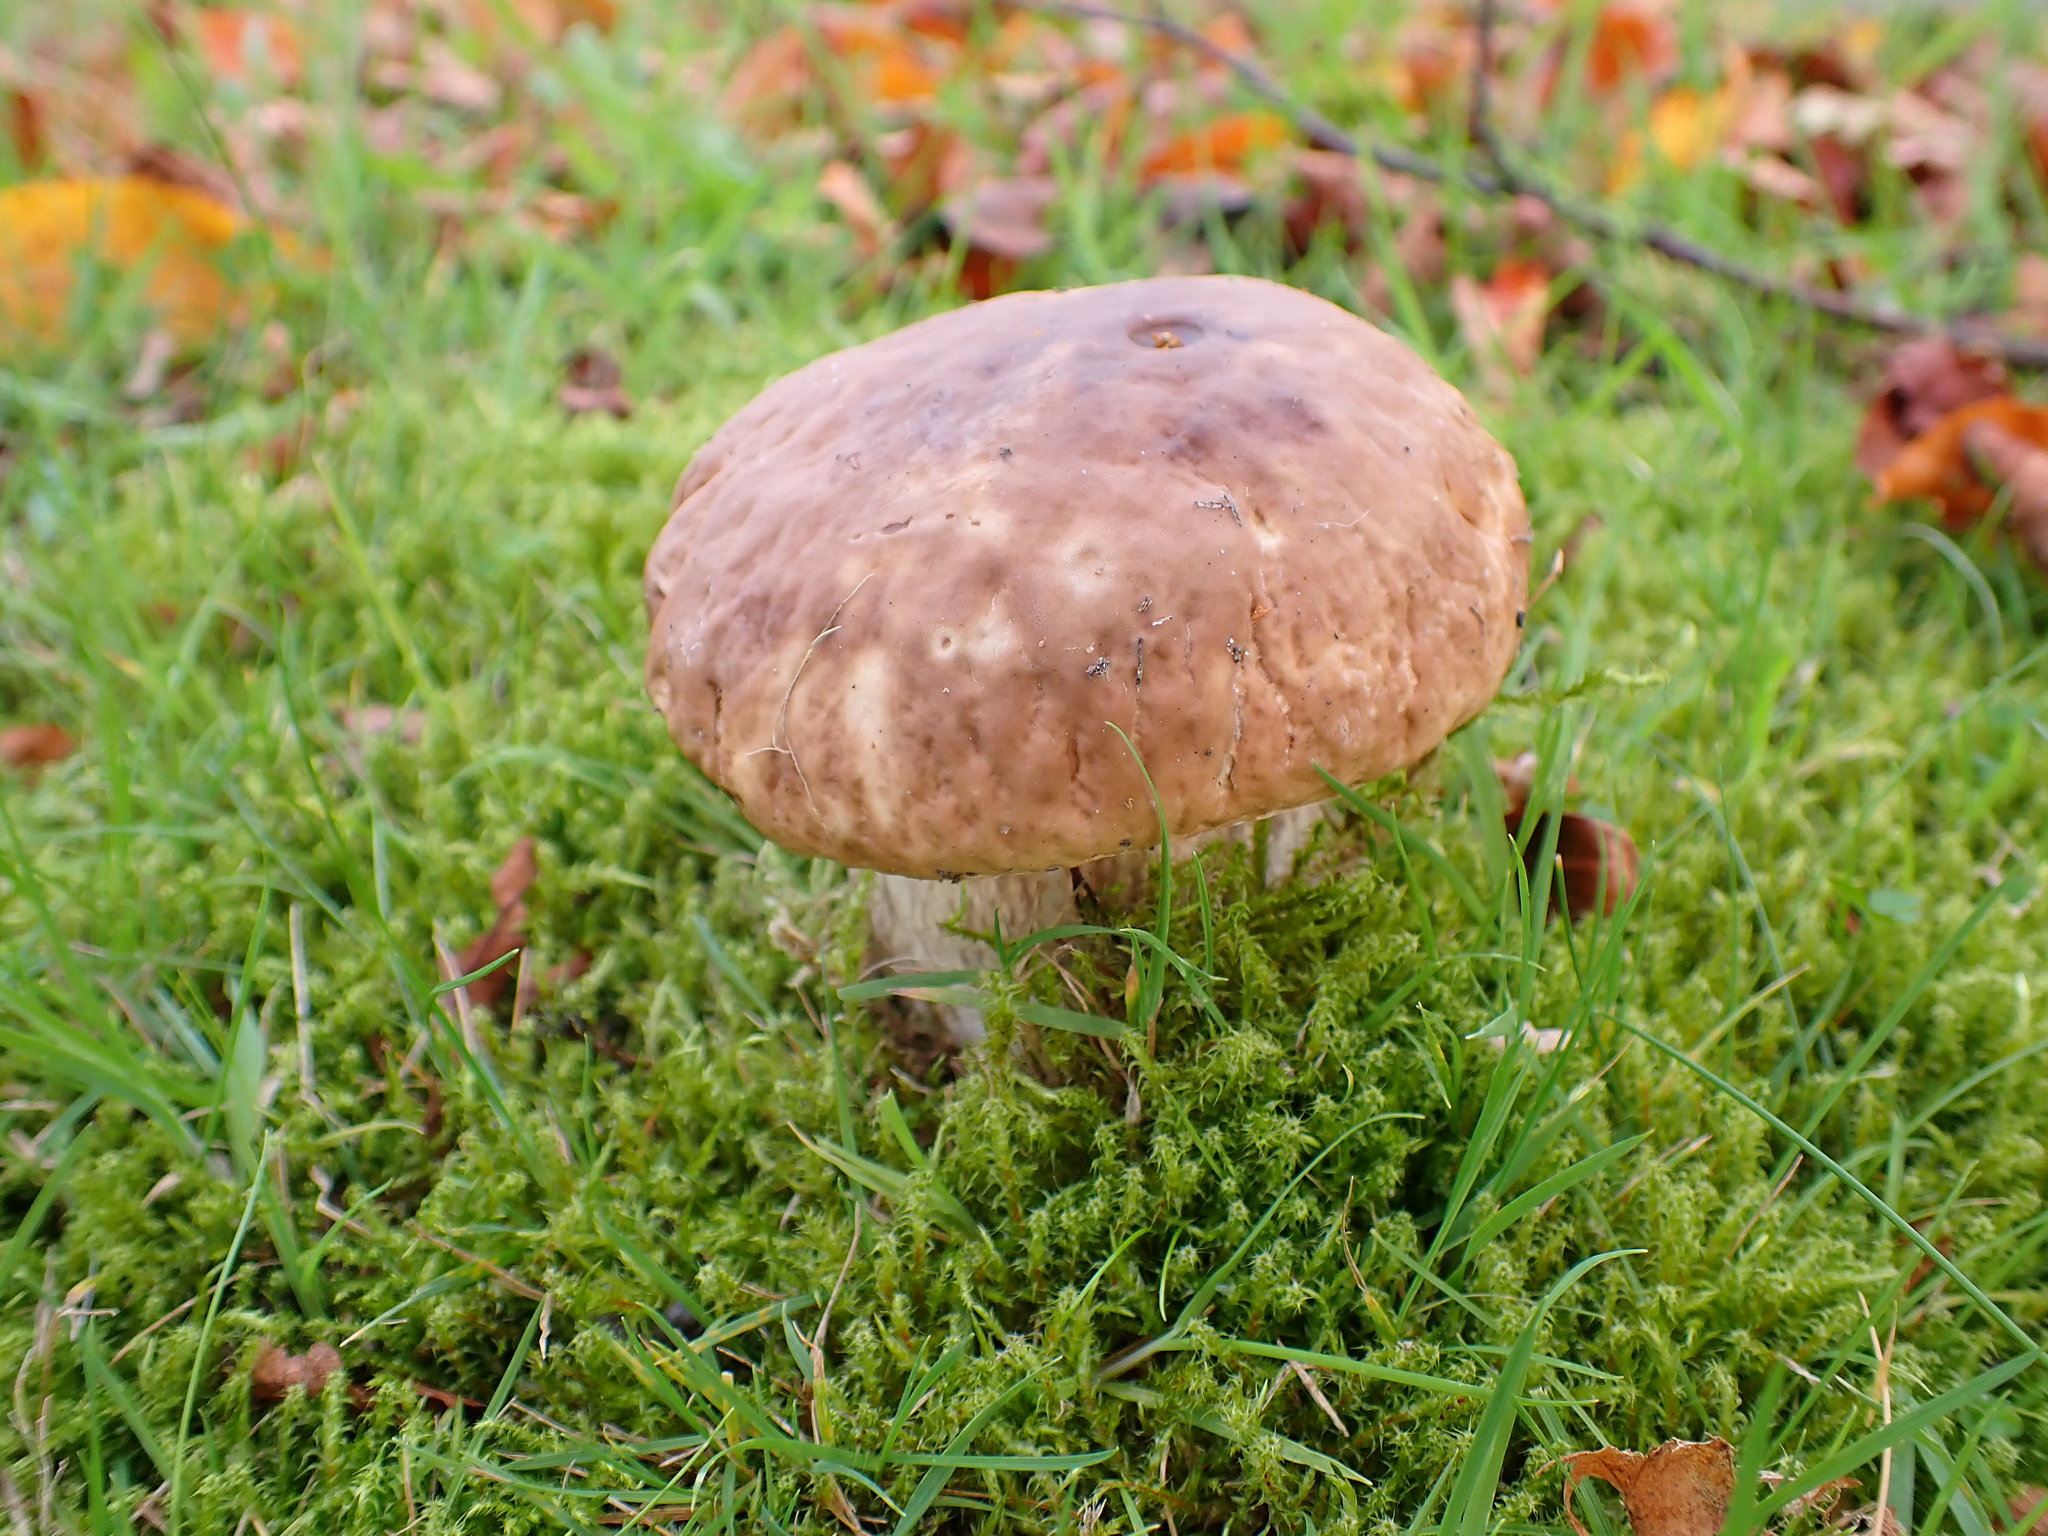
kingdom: Fungi
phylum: Basidiomycota
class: Agaricomycetes
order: Boletales
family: Boletaceae
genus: Boletus
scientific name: Boletus edulis
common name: Cep
